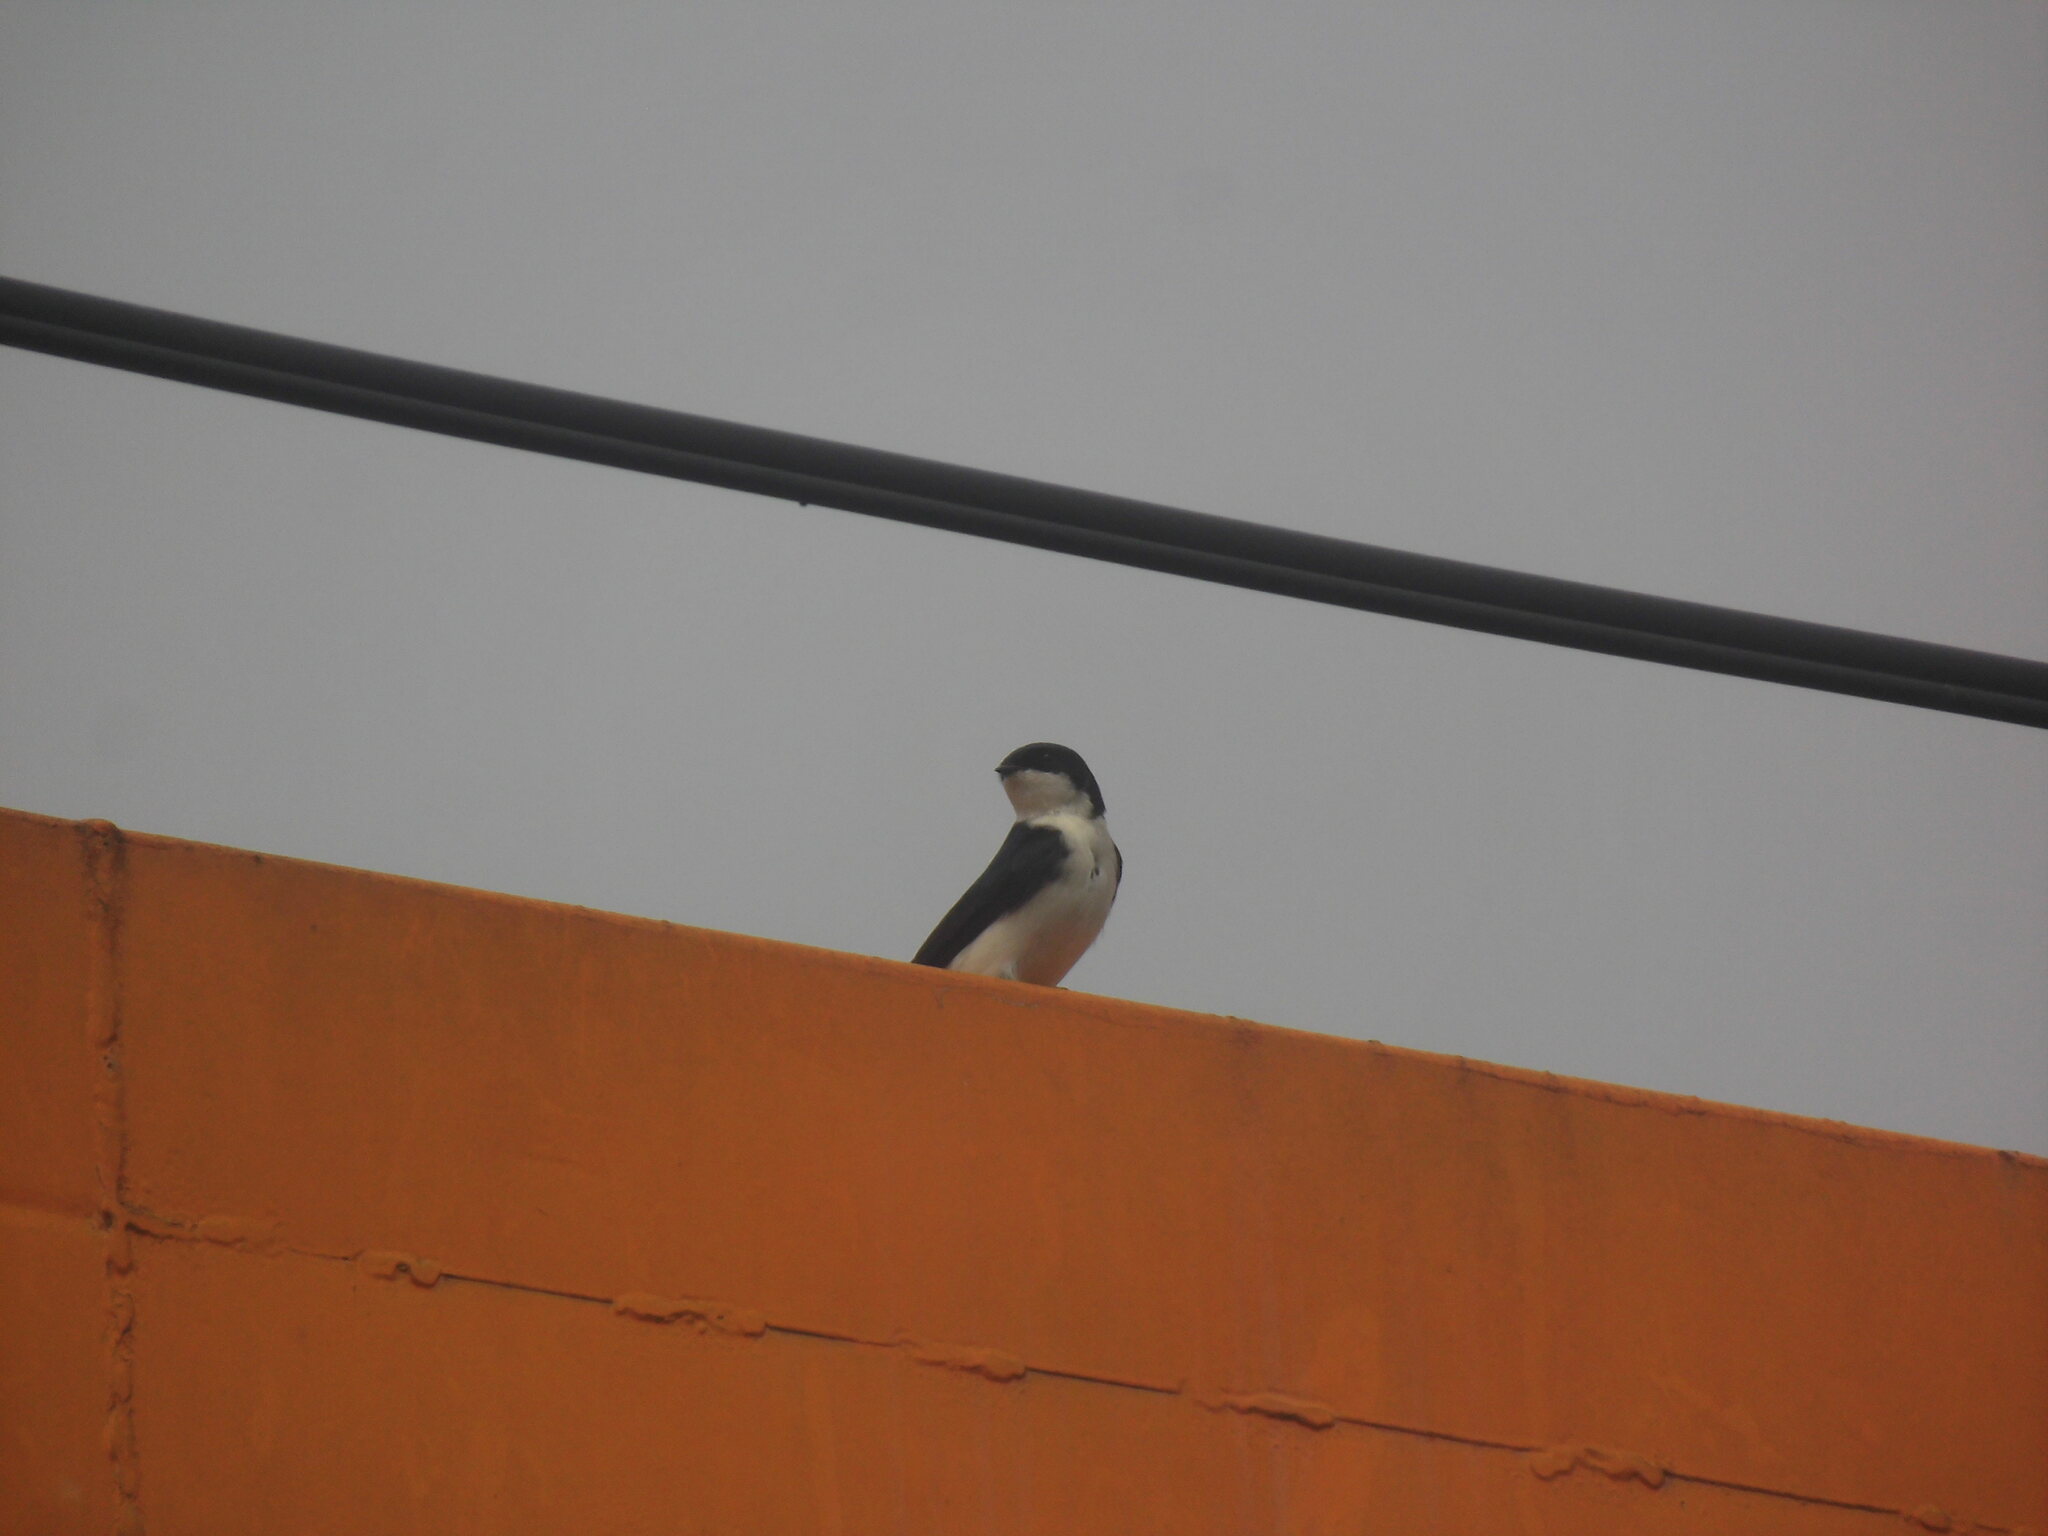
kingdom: Animalia
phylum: Chordata
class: Aves
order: Passeriformes
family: Hirundinidae
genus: Notiochelidon
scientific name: Notiochelidon cyanoleuca
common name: Blue-and-white swallow
